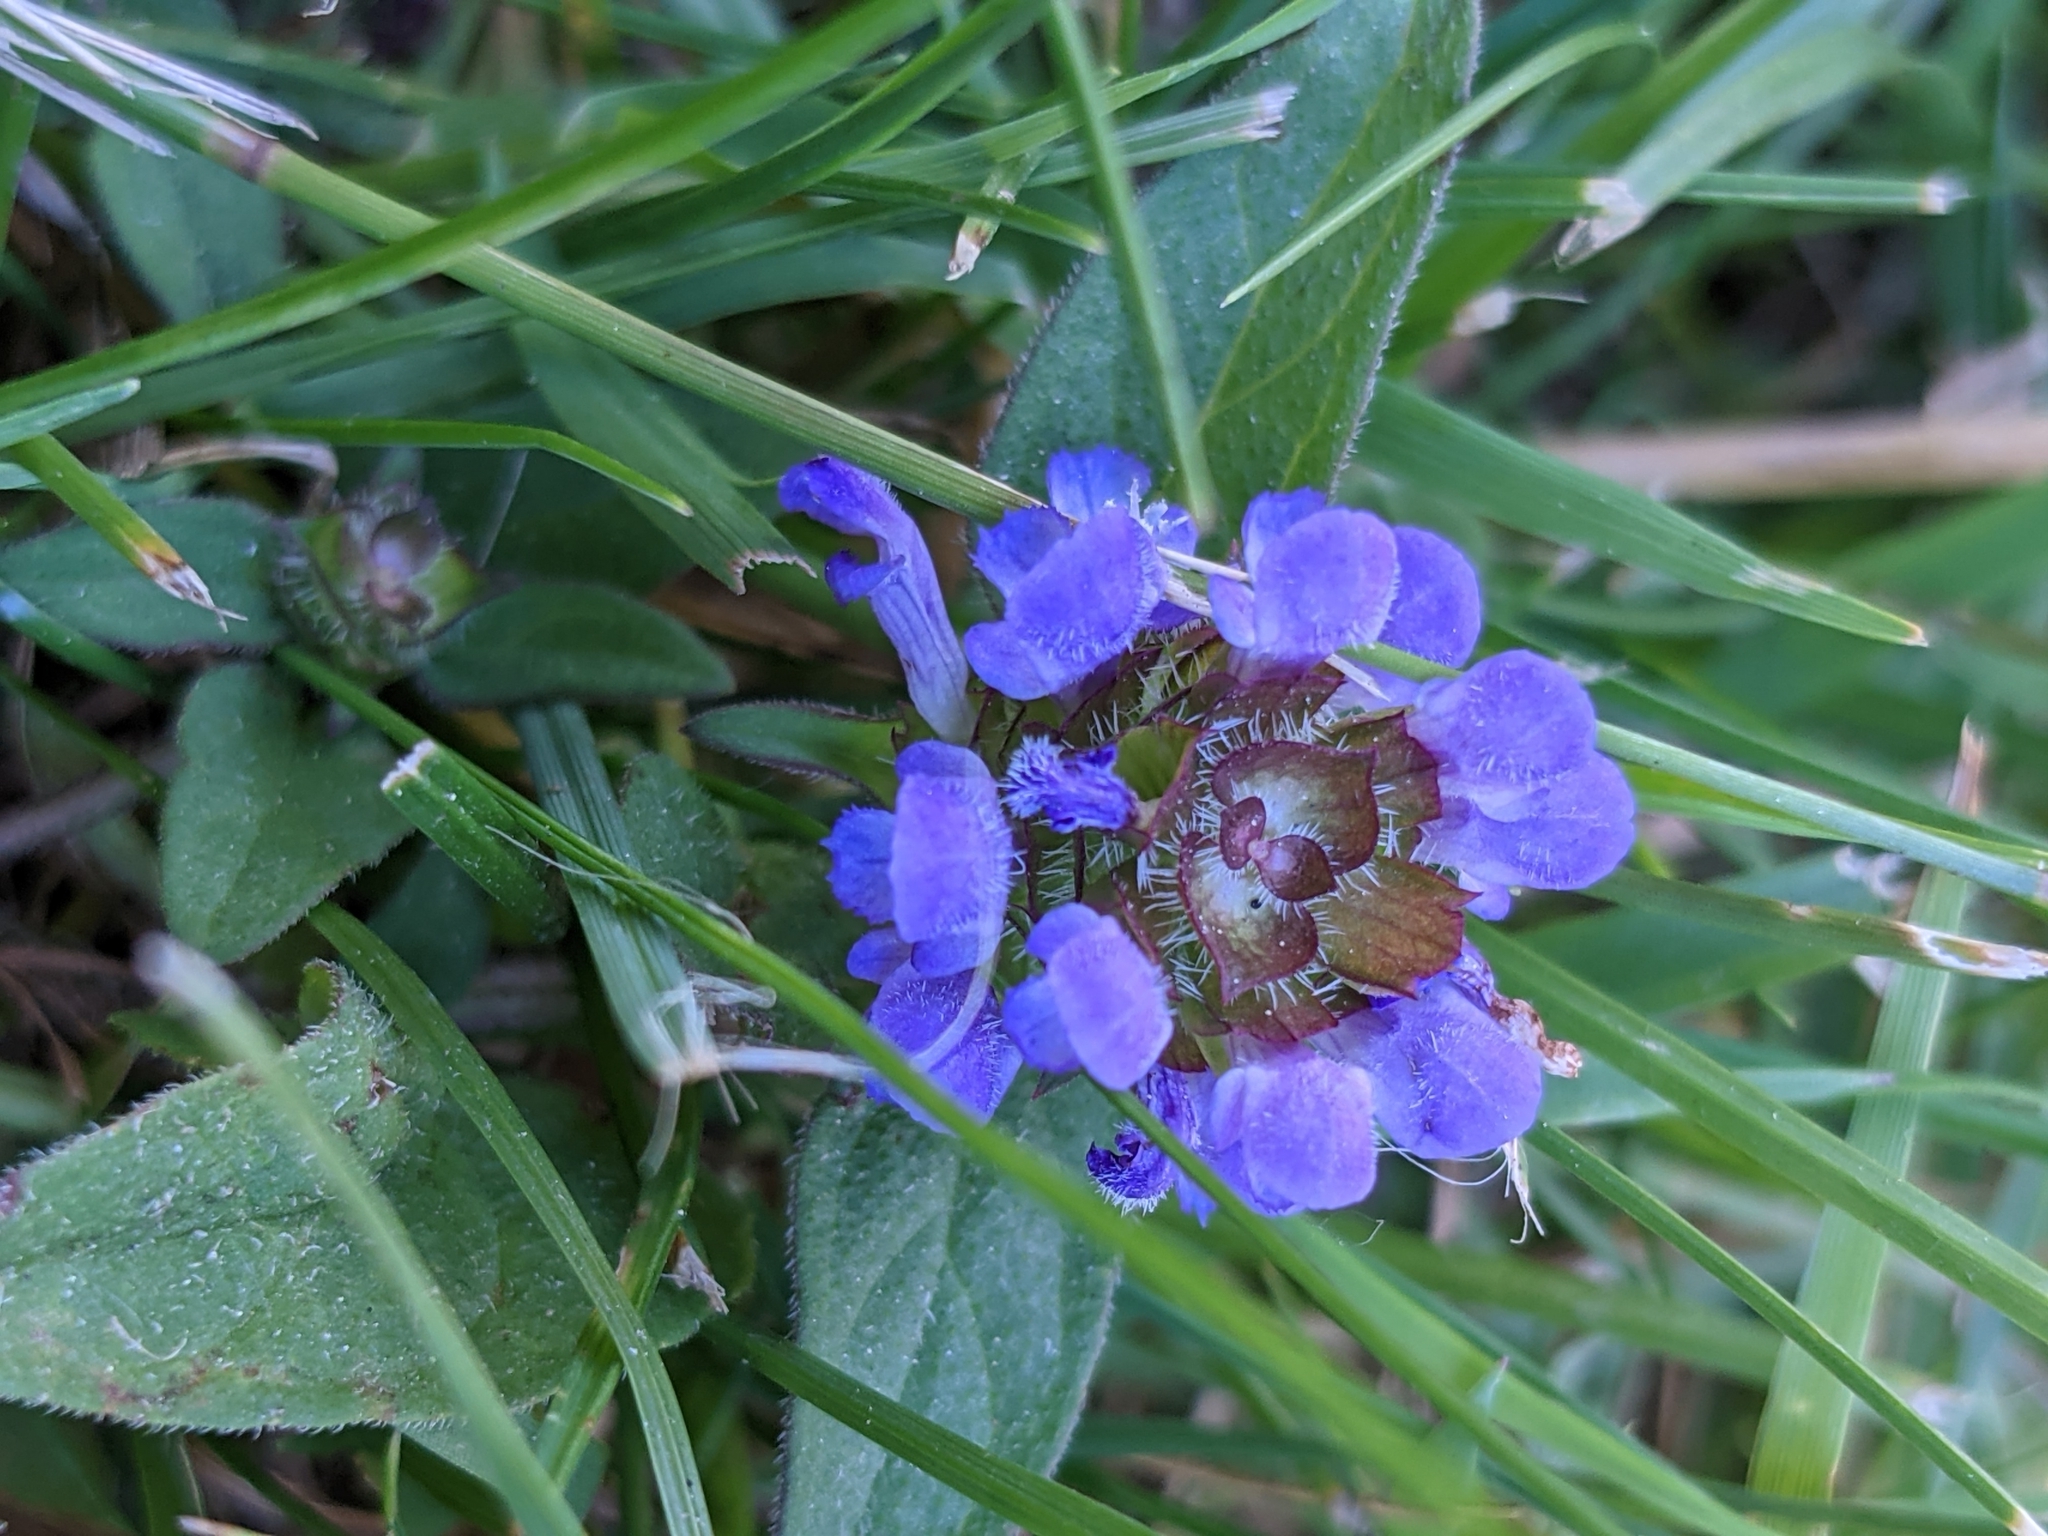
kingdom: Plantae
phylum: Tracheophyta
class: Magnoliopsida
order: Lamiales
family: Lamiaceae
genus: Prunella
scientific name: Prunella vulgaris
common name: Heal-all
